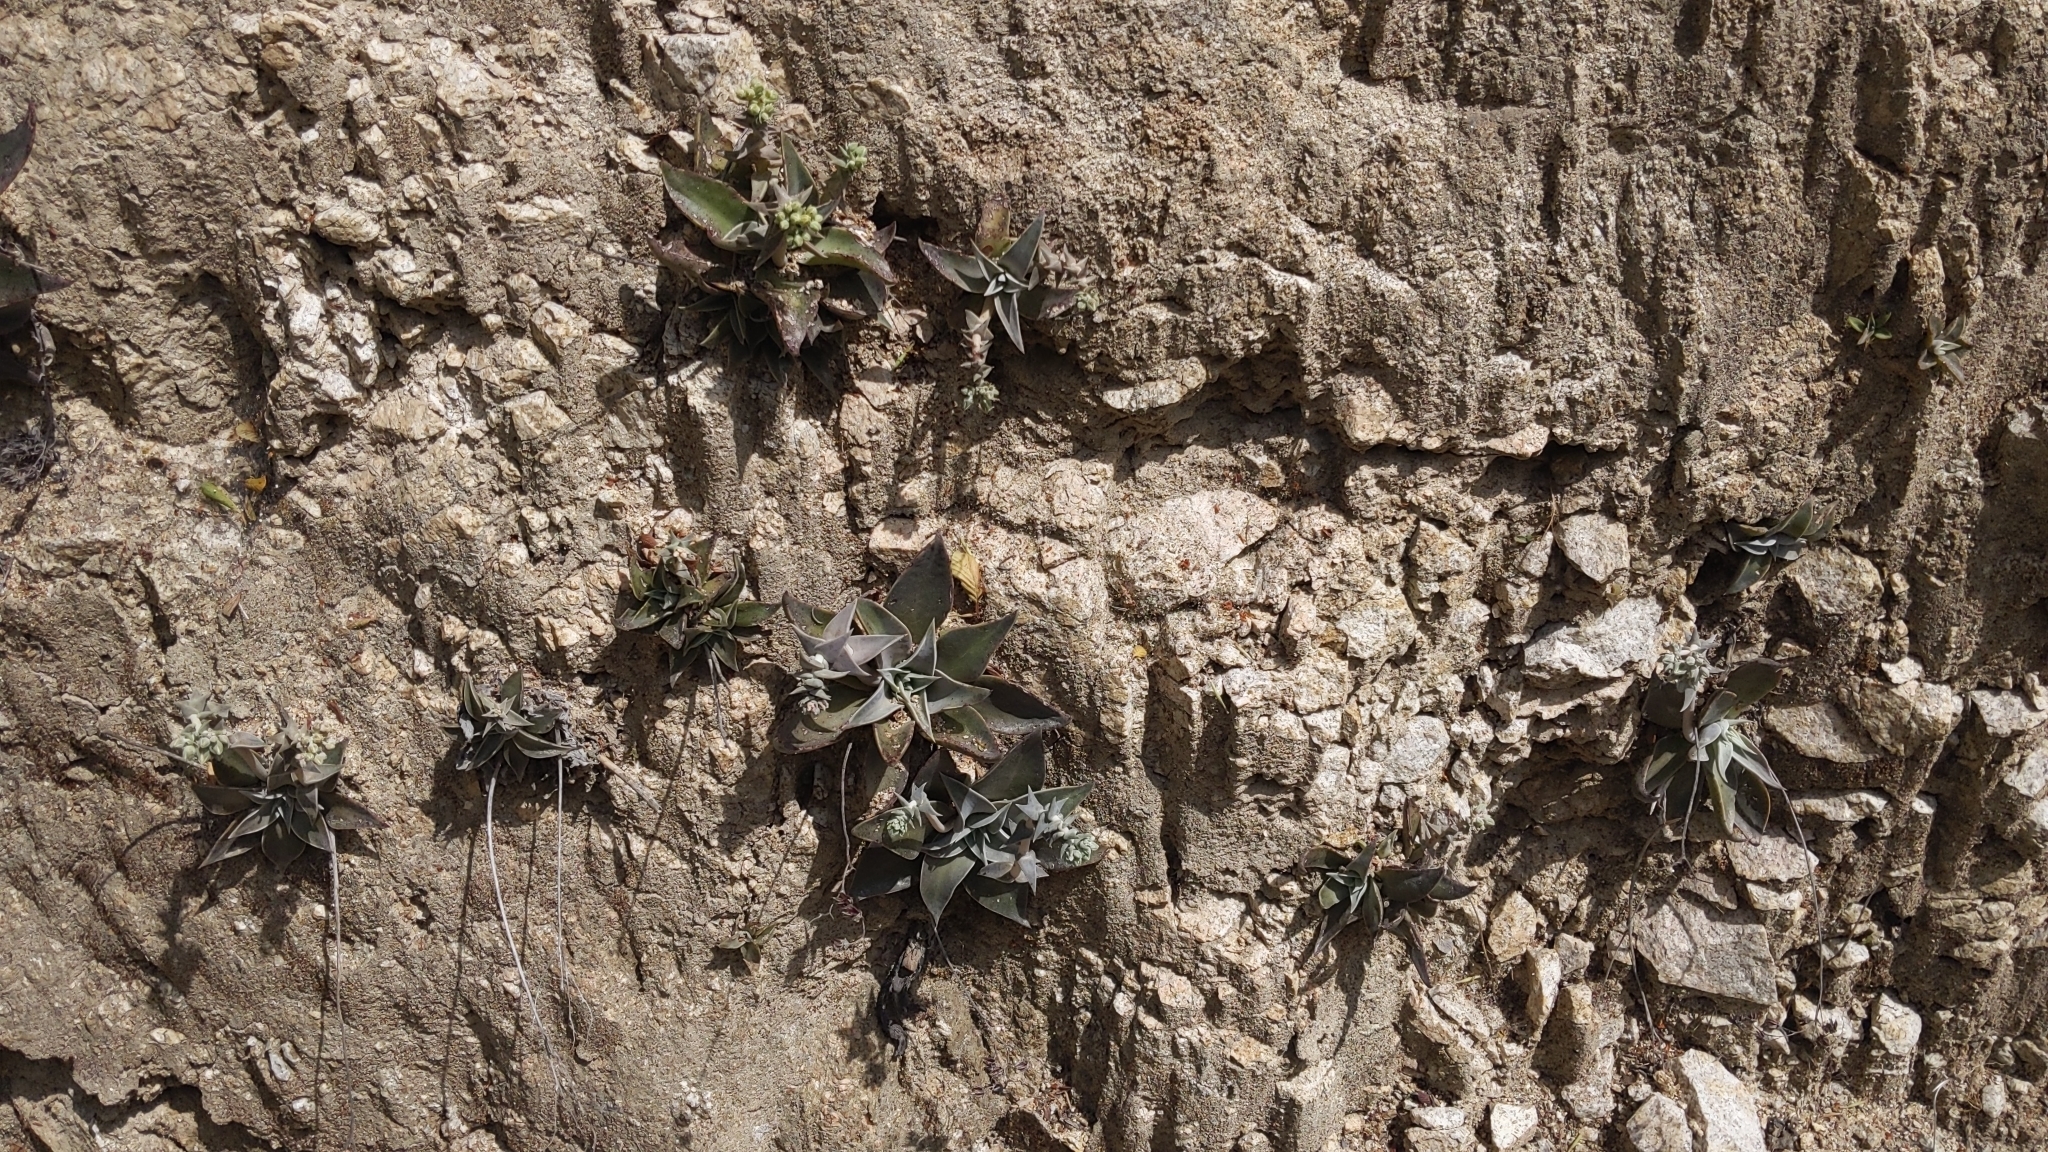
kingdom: Plantae
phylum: Tracheophyta
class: Magnoliopsida
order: Saxifragales
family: Crassulaceae
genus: Dudleya
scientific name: Dudleya cymosa
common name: Canyon dudleya
